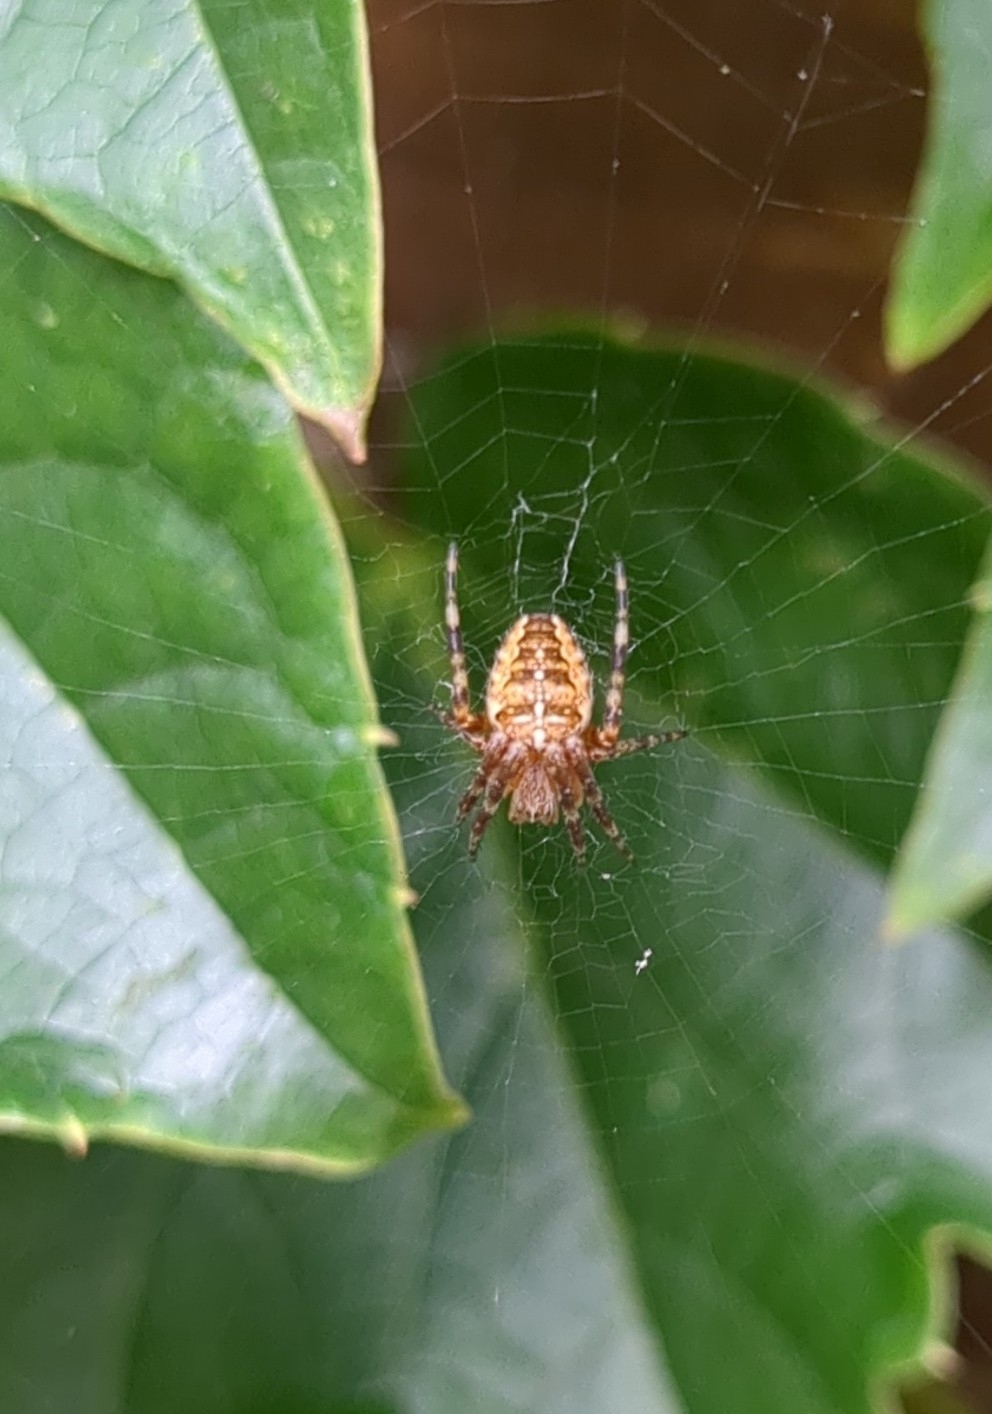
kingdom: Animalia
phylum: Arthropoda
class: Arachnida
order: Araneae
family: Araneidae
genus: Araneus
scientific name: Araneus diadematus
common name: Cross orbweaver
